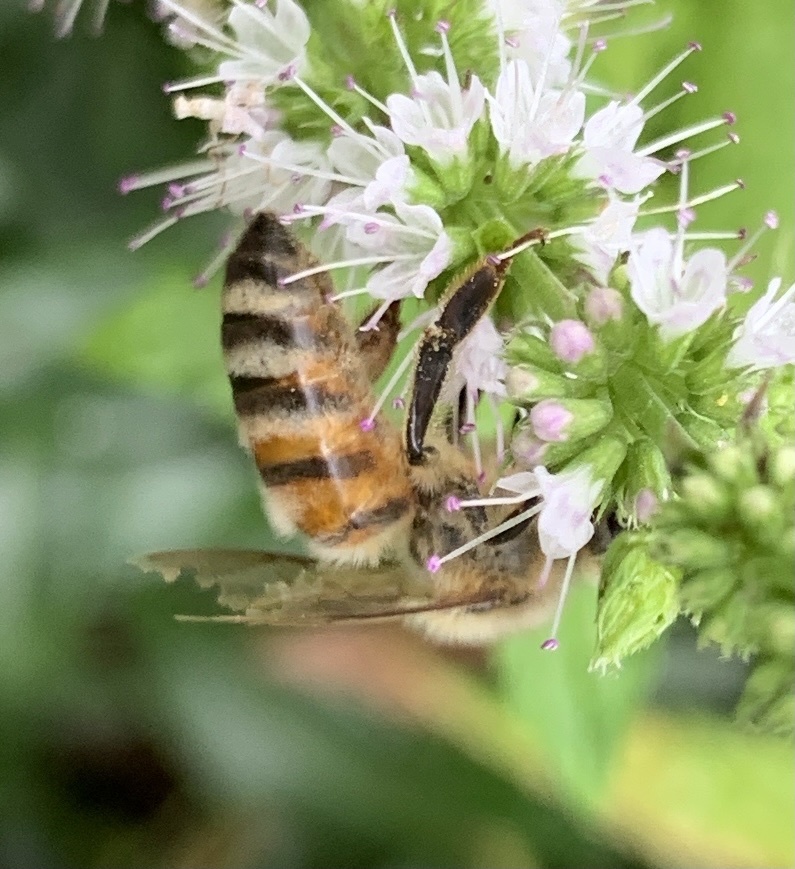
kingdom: Animalia
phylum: Arthropoda
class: Insecta
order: Hymenoptera
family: Apidae
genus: Apis
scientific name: Apis mellifera
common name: Honey bee
